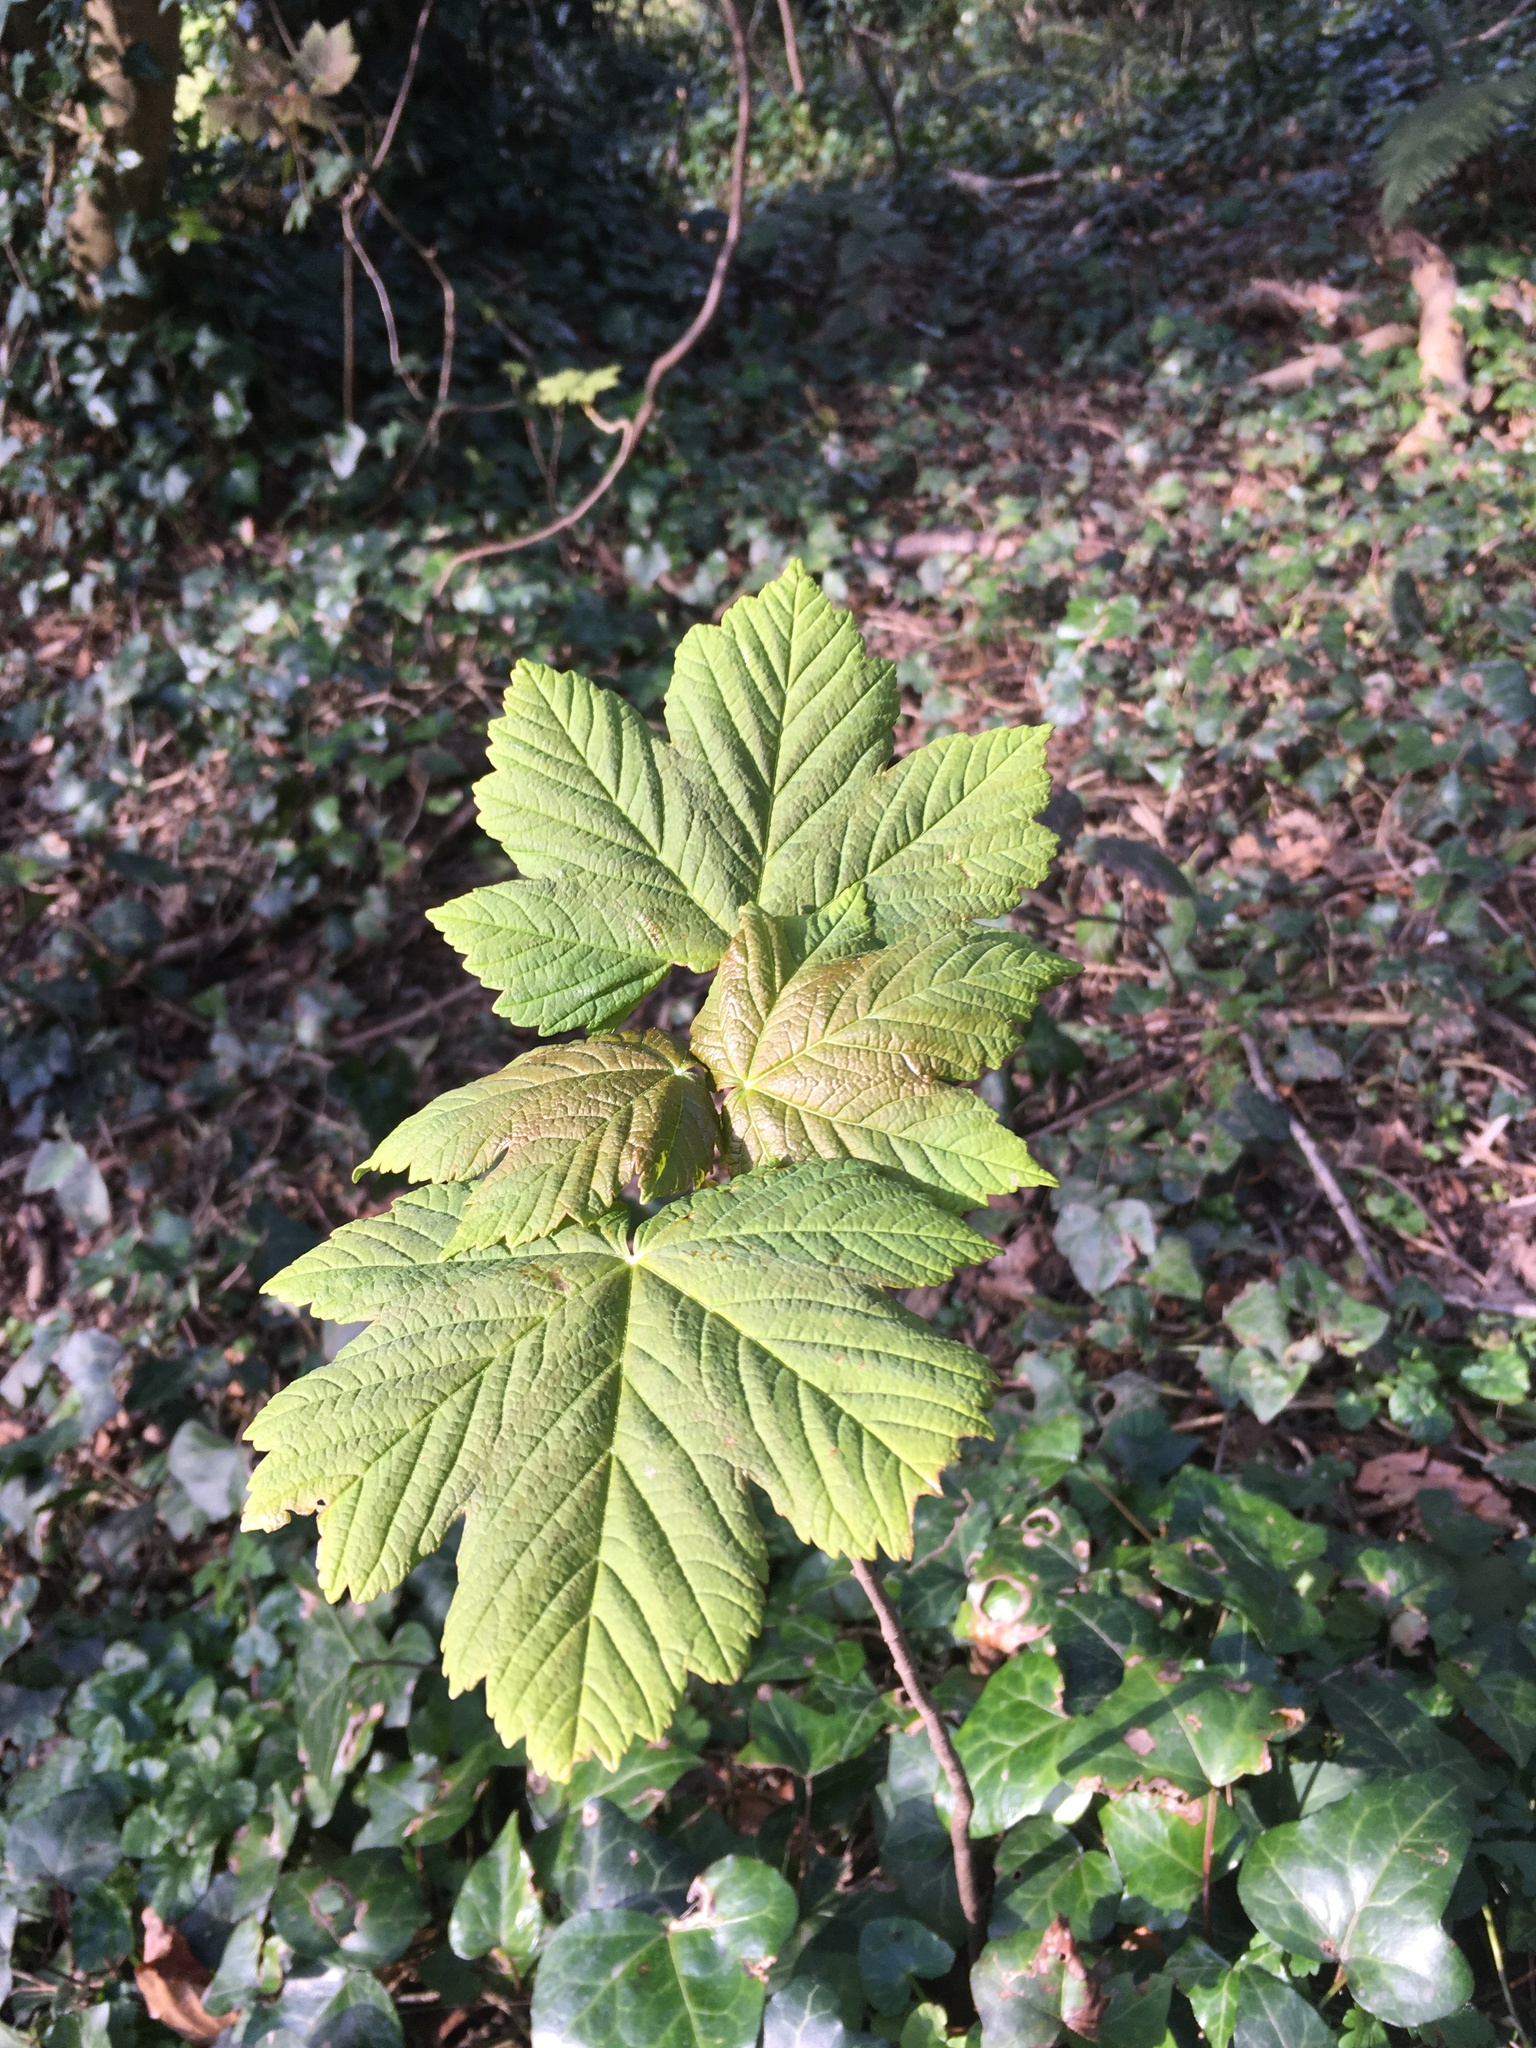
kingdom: Plantae
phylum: Tracheophyta
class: Magnoliopsida
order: Sapindales
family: Sapindaceae
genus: Acer
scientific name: Acer pseudoplatanus
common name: Sycamore
